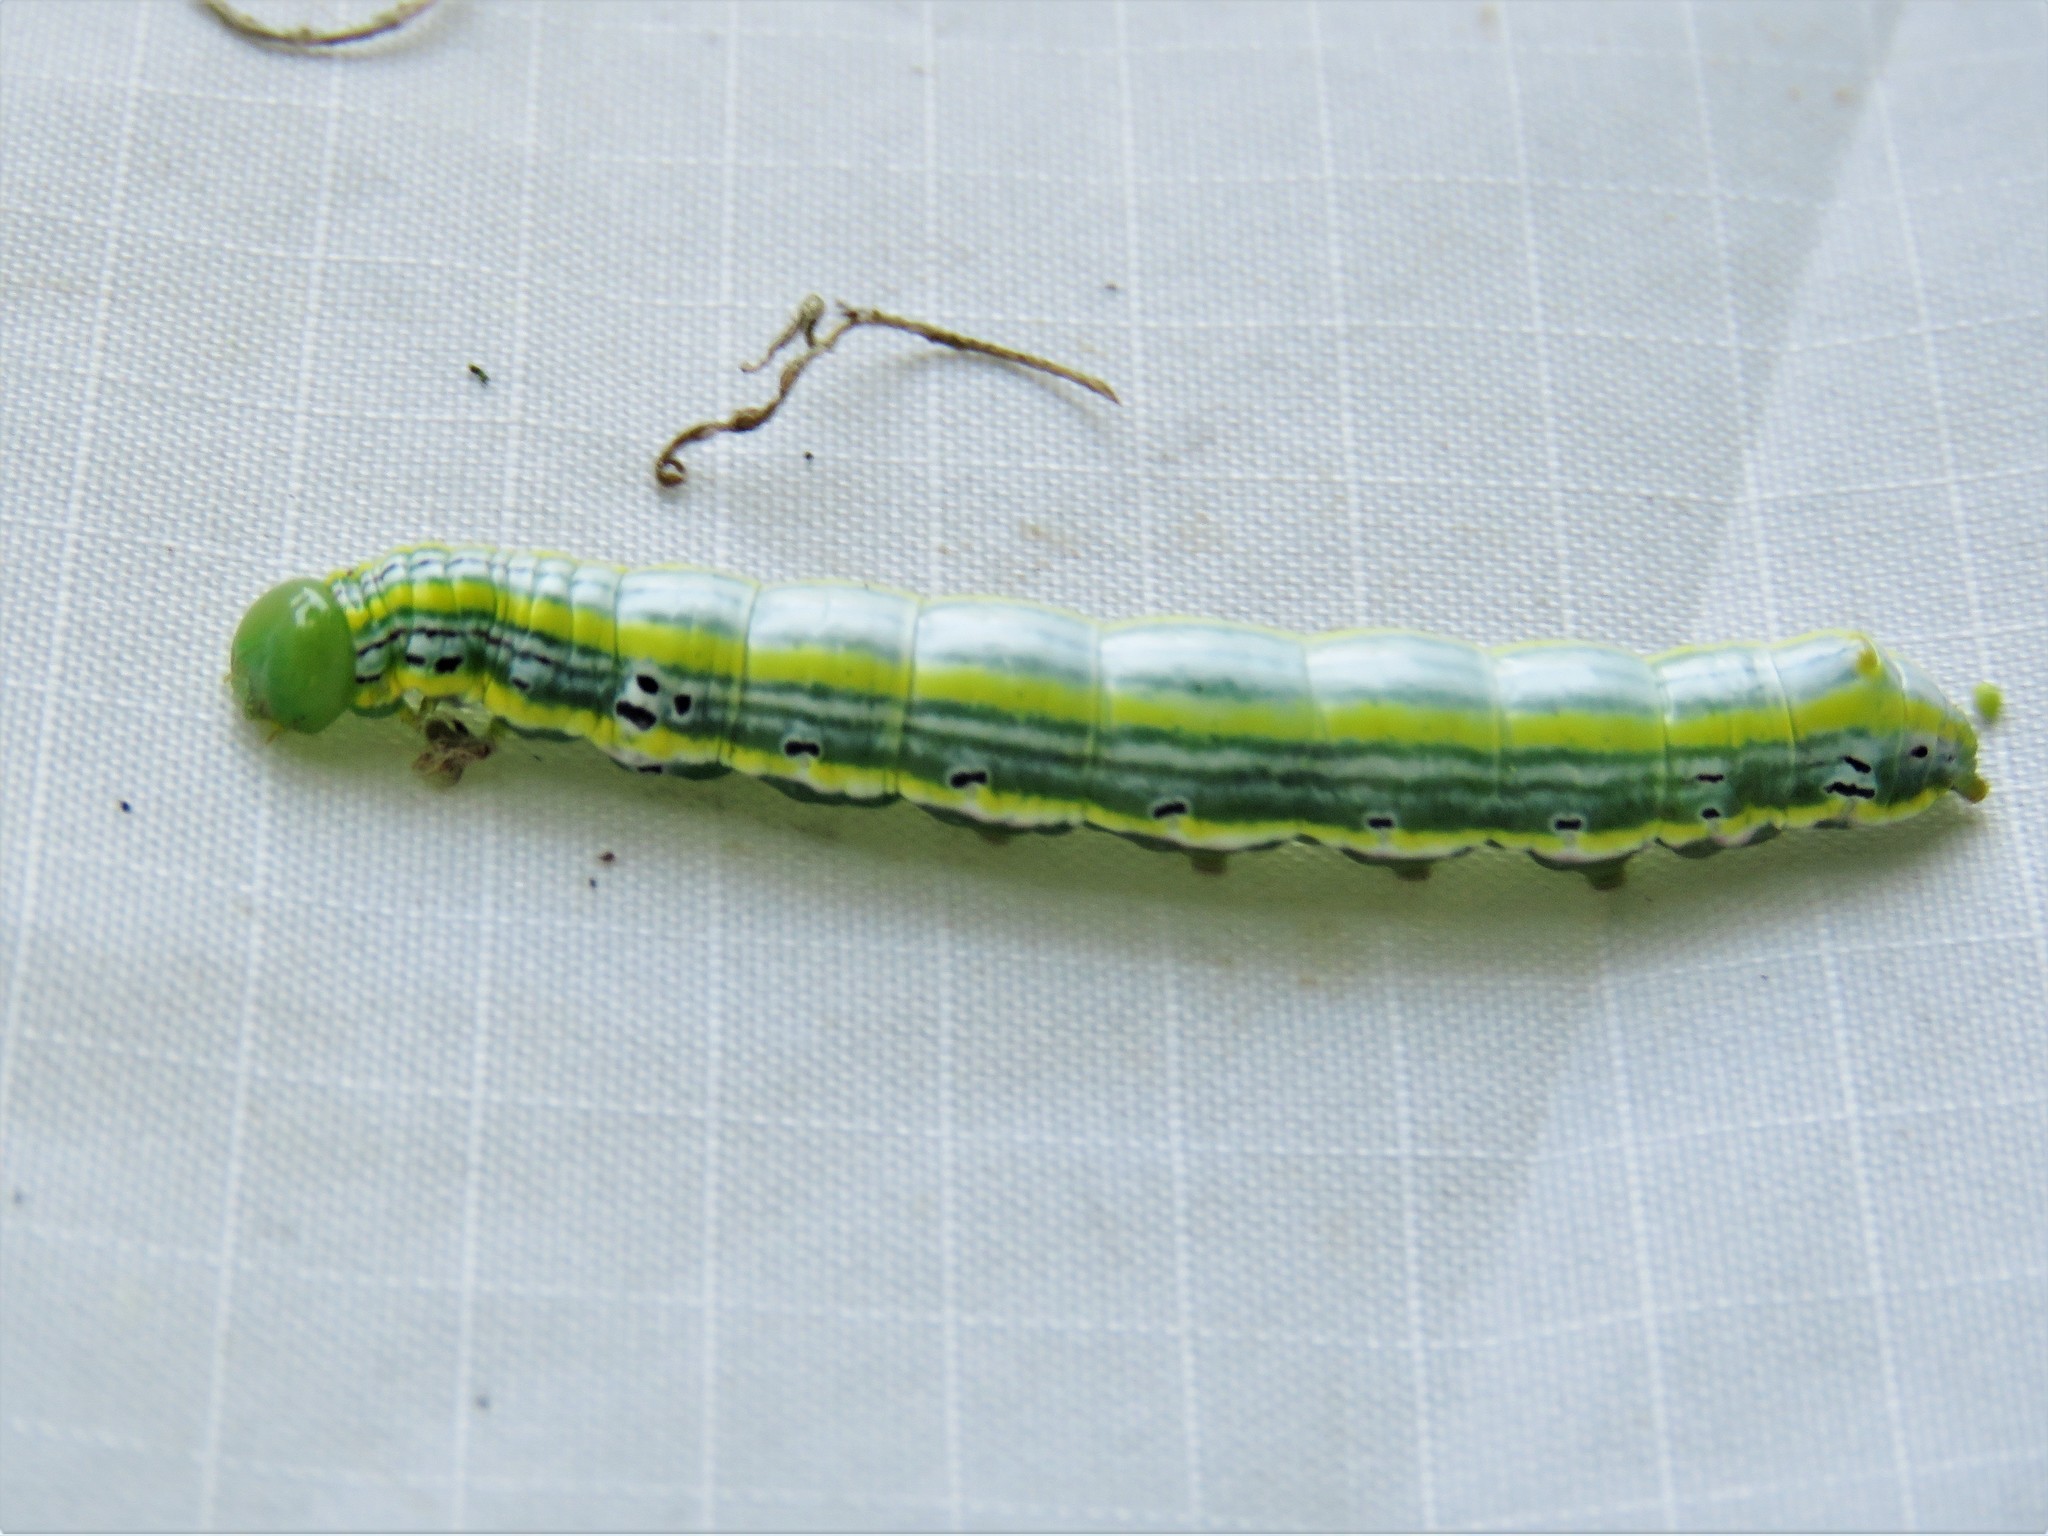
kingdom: Animalia
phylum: Arthropoda
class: Insecta
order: Lepidoptera
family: Notodontidae
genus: Elasmia
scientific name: Elasmia packardii
